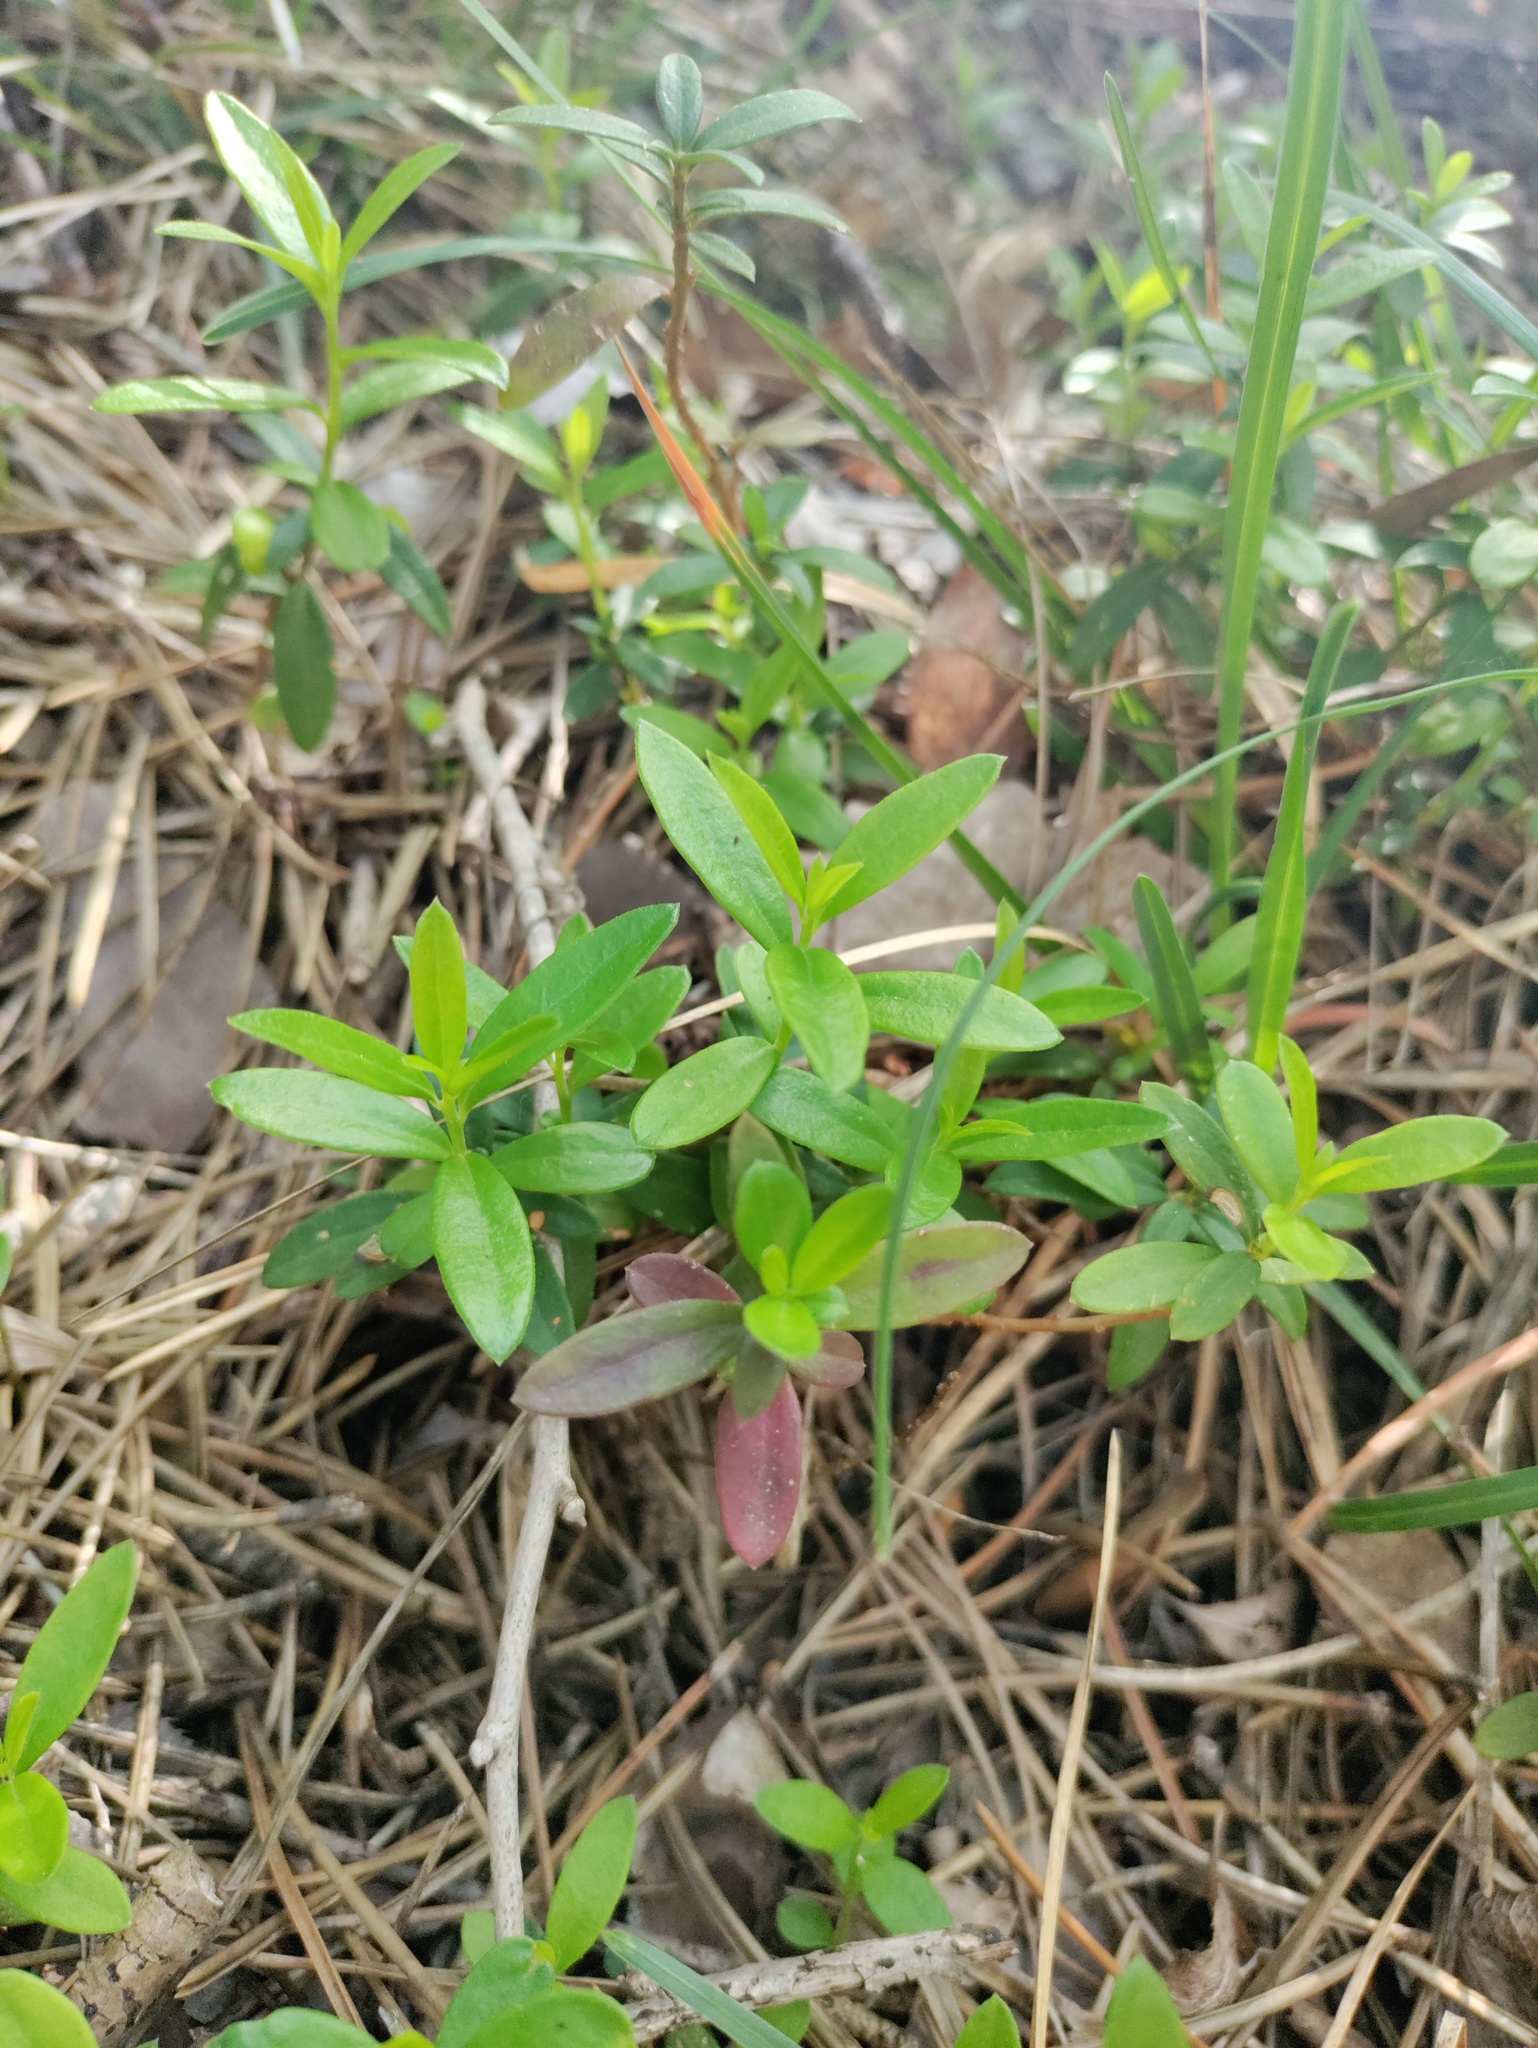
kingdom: Plantae
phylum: Tracheophyta
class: Magnoliopsida
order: Fabales
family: Polygalaceae
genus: Polygaloides
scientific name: Polygaloides chamaebuxus
